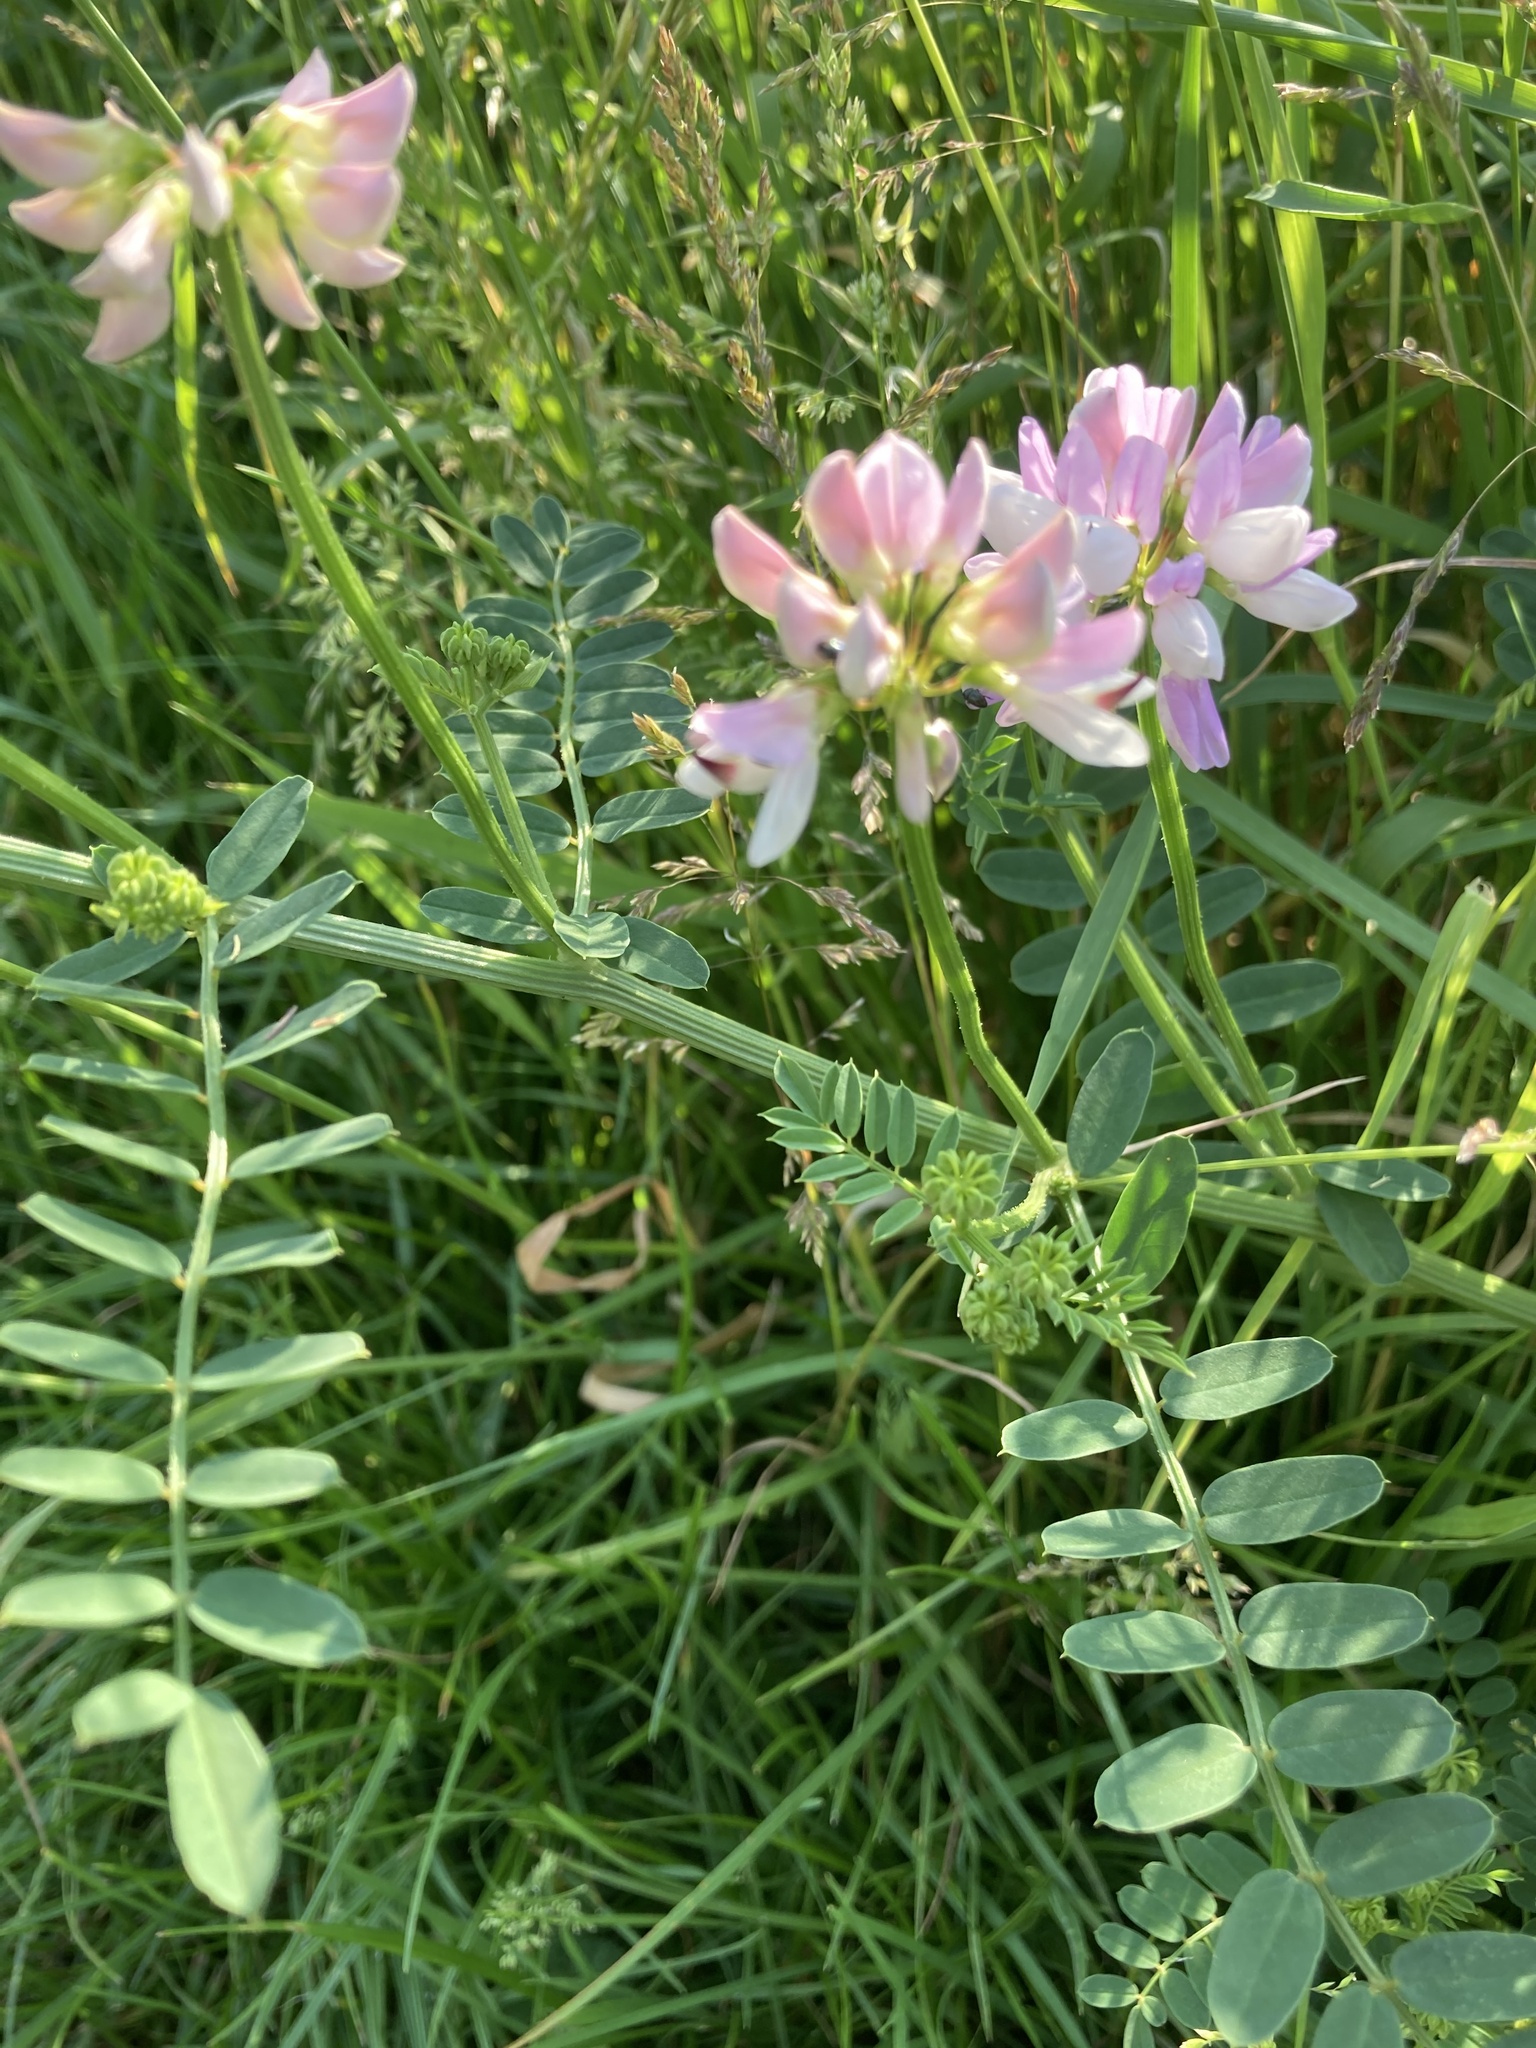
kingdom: Plantae
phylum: Tracheophyta
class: Magnoliopsida
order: Fabales
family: Fabaceae
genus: Coronilla
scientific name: Coronilla varia
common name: Crownvetch
